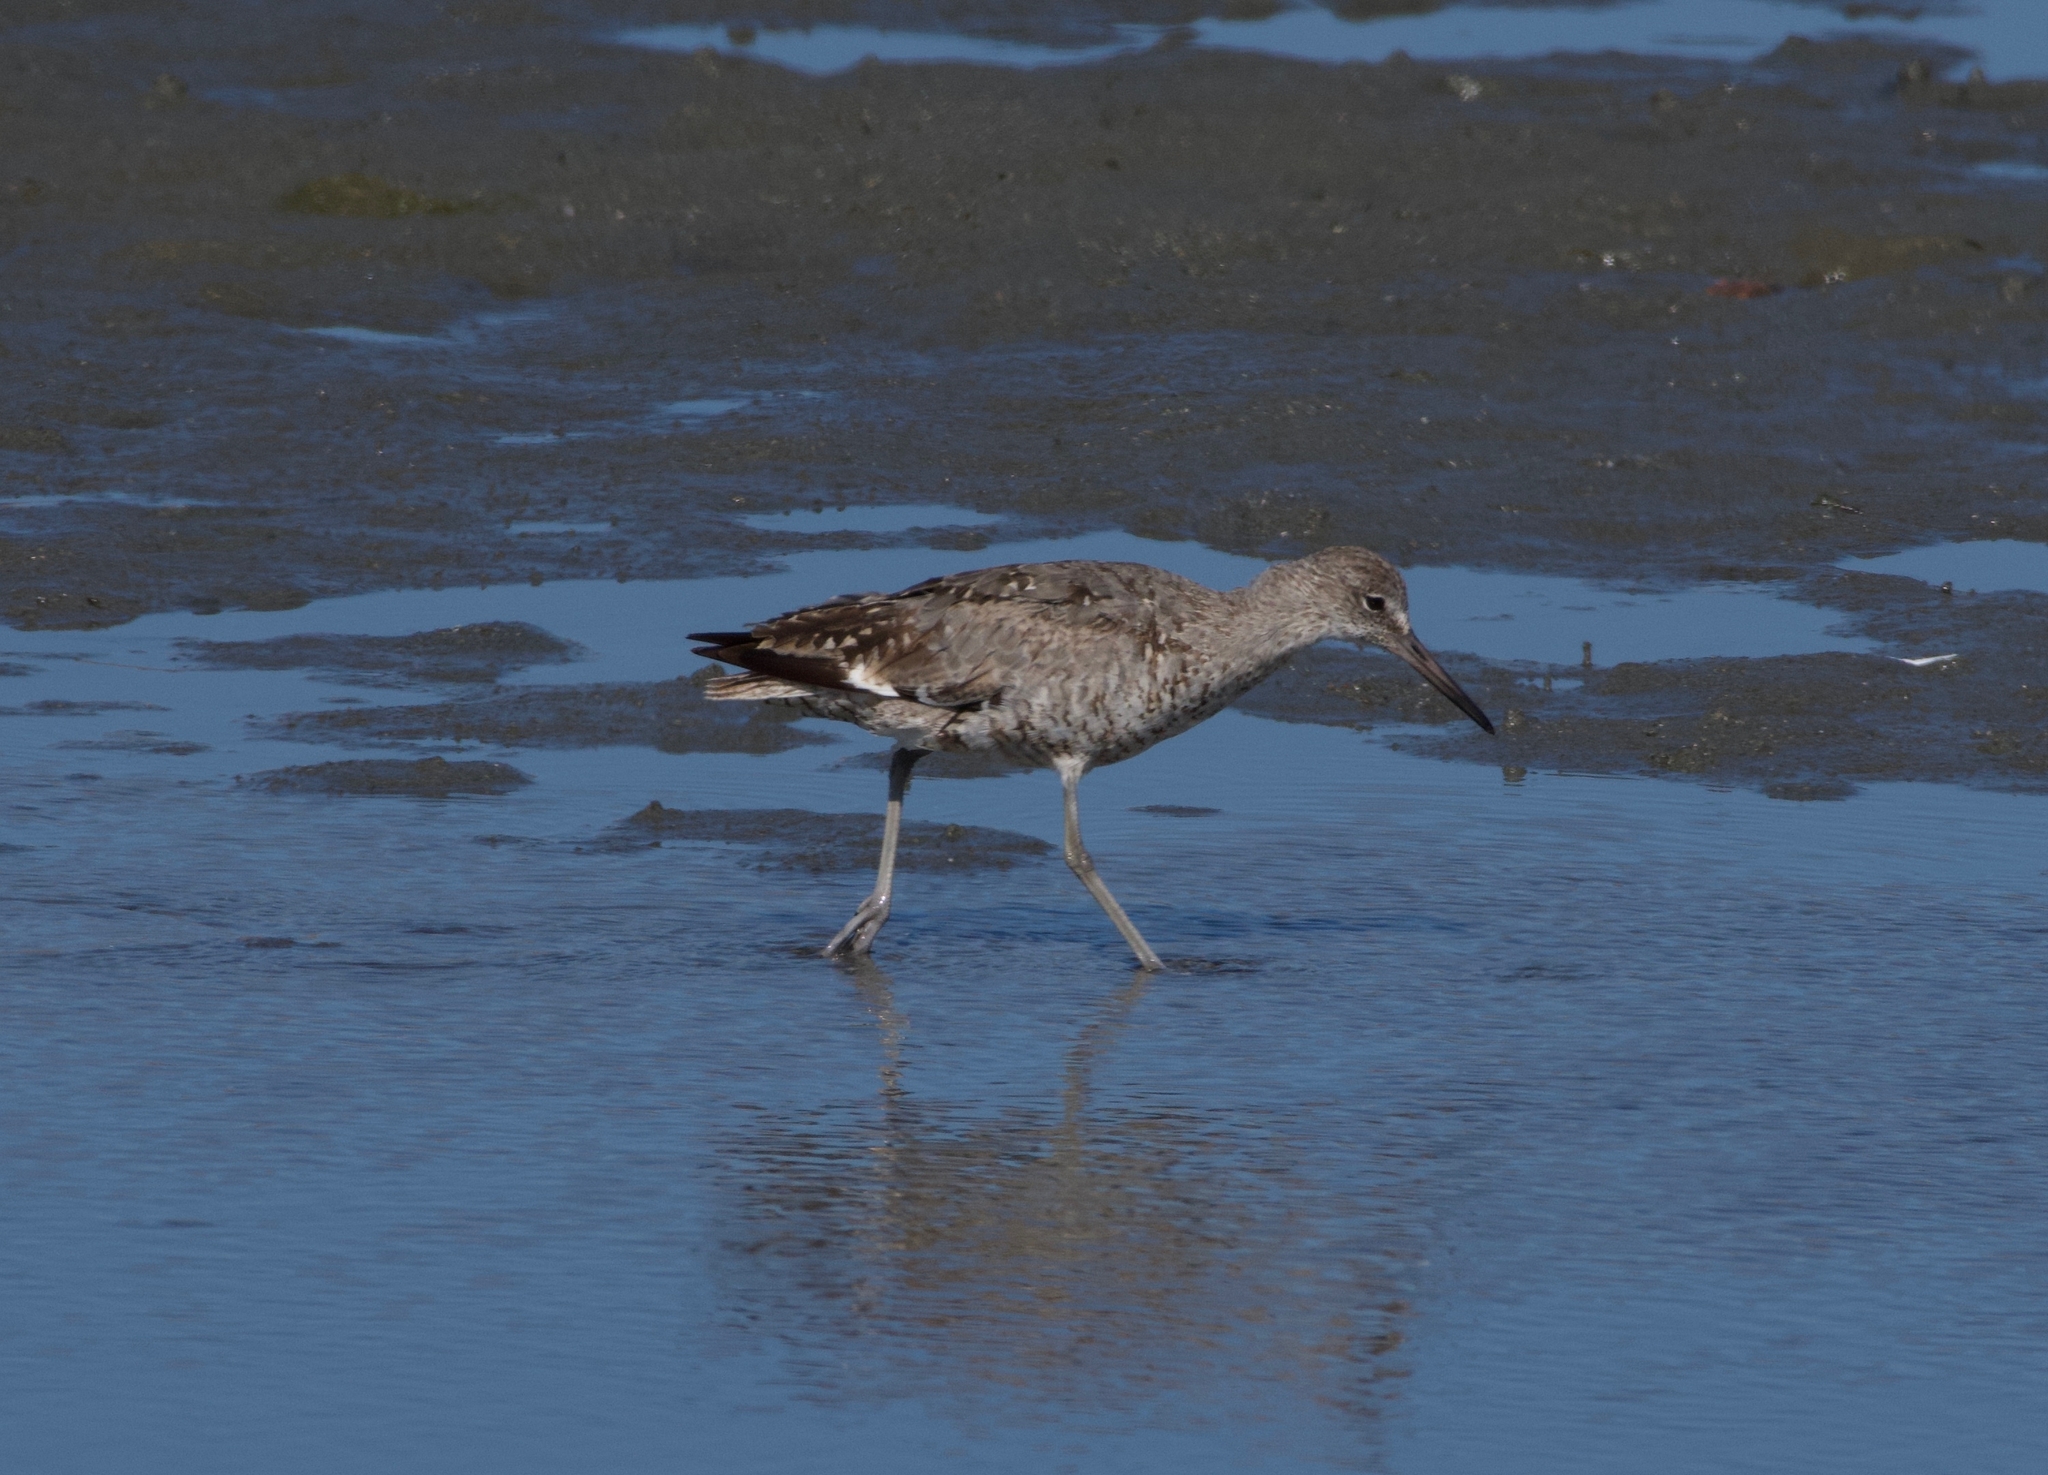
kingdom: Animalia
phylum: Chordata
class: Aves
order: Charadriiformes
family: Scolopacidae
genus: Tringa
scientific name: Tringa semipalmata
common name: Willet
